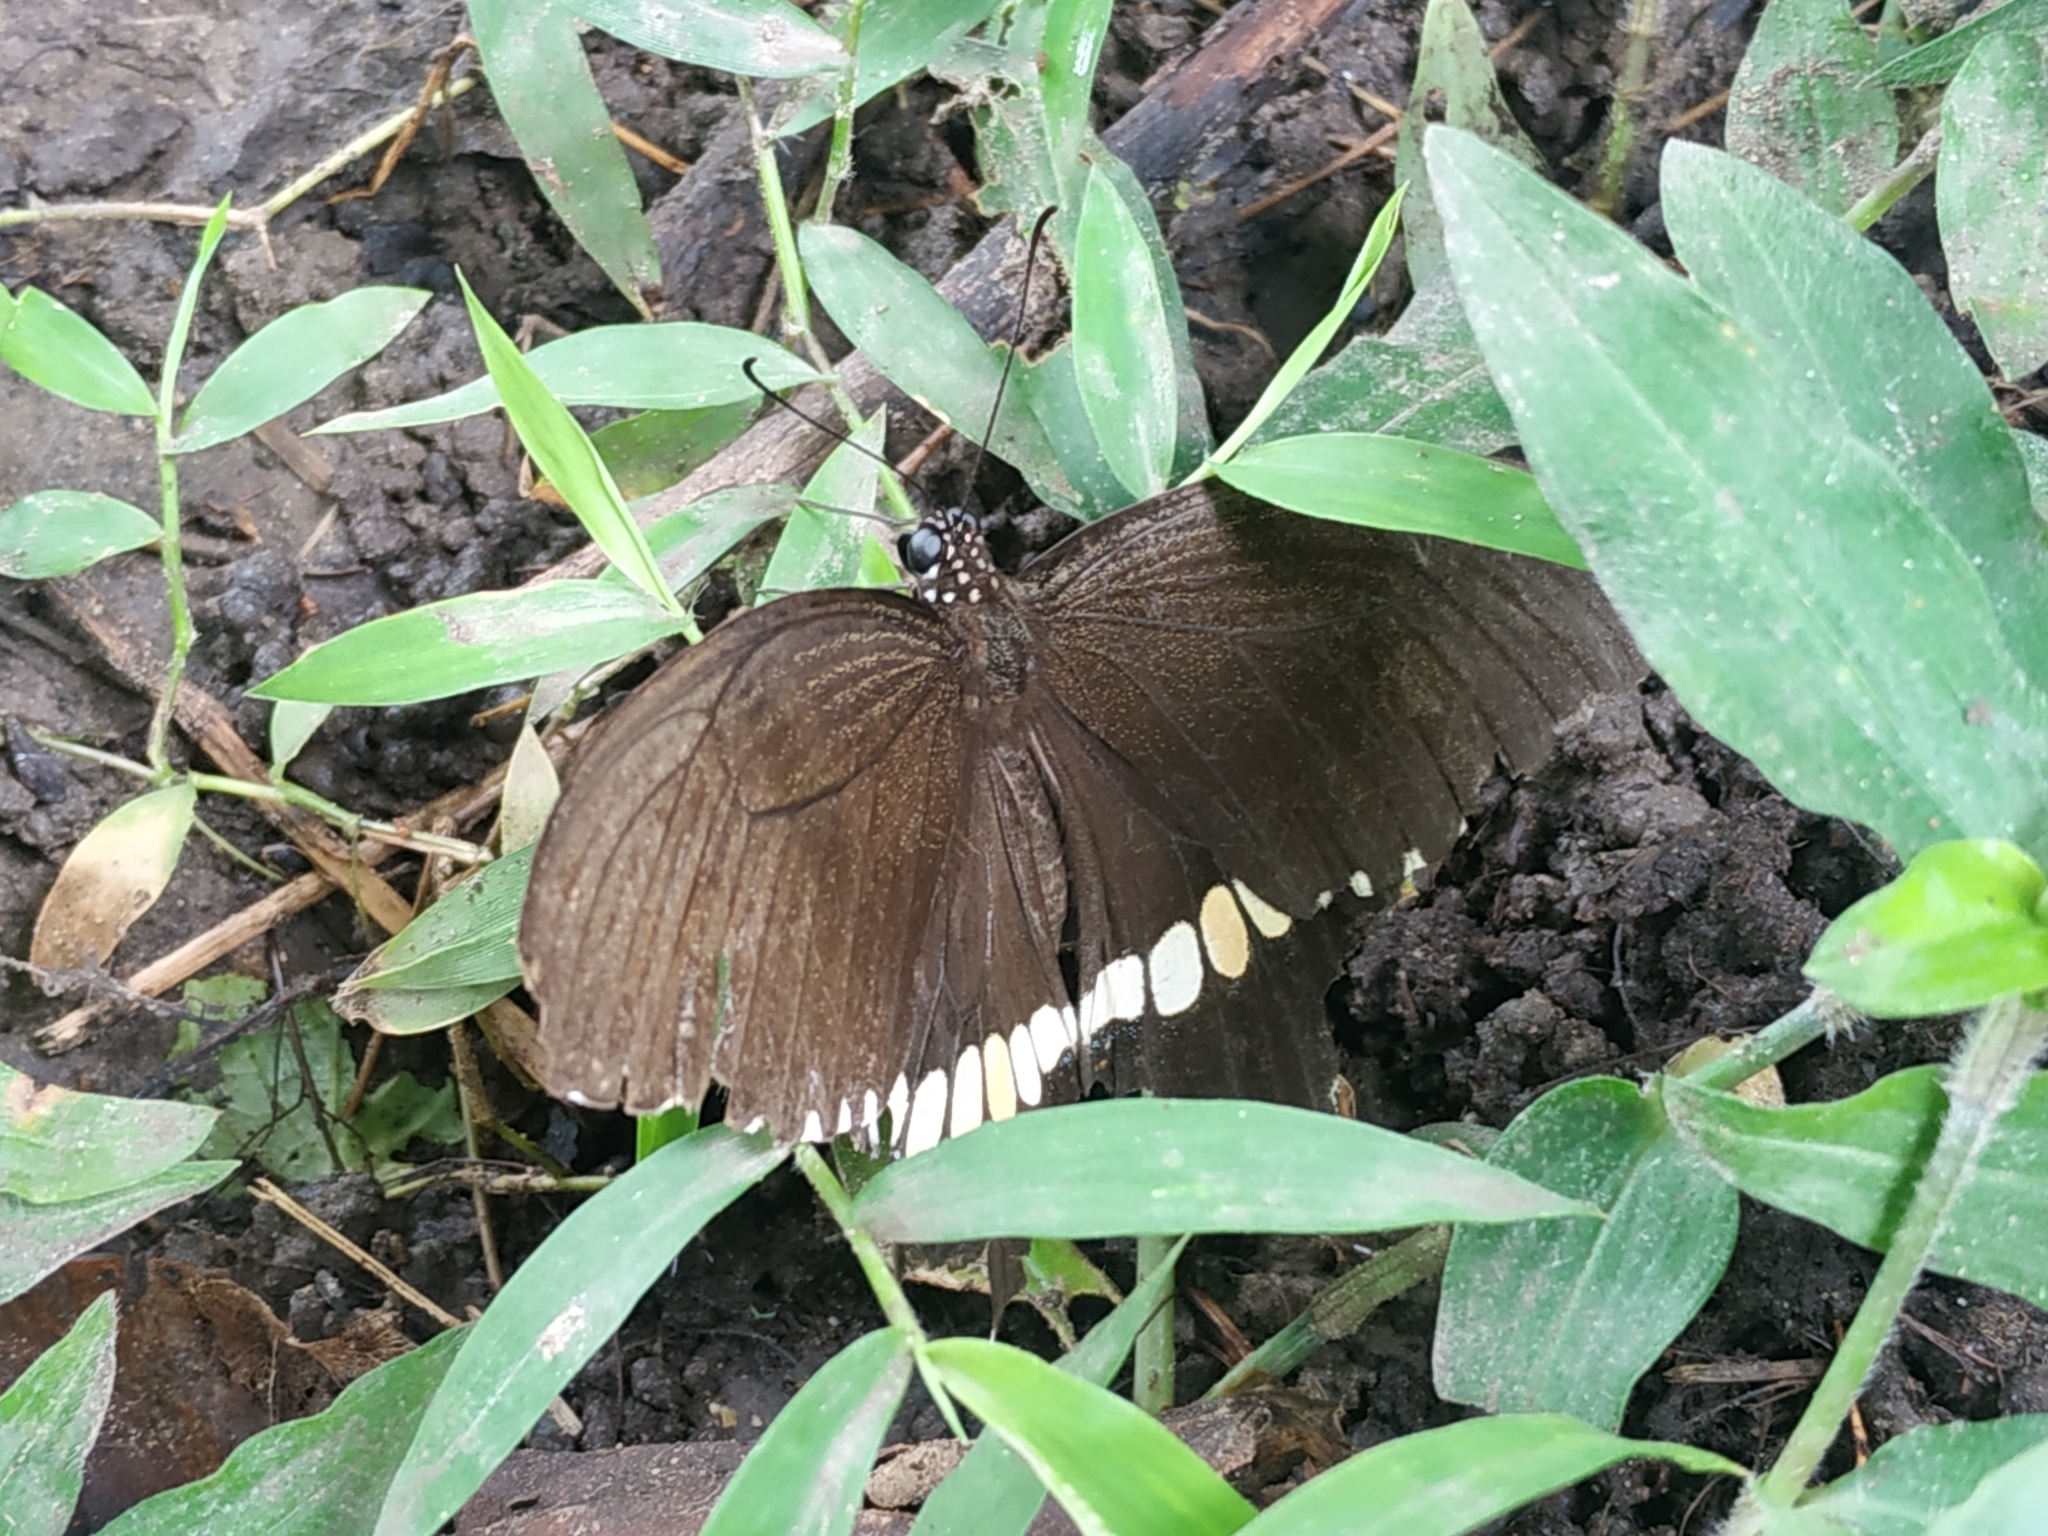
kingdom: Animalia
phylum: Arthropoda
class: Insecta
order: Lepidoptera
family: Papilionidae
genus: Papilio
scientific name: Papilio polytes
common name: Common mormon
